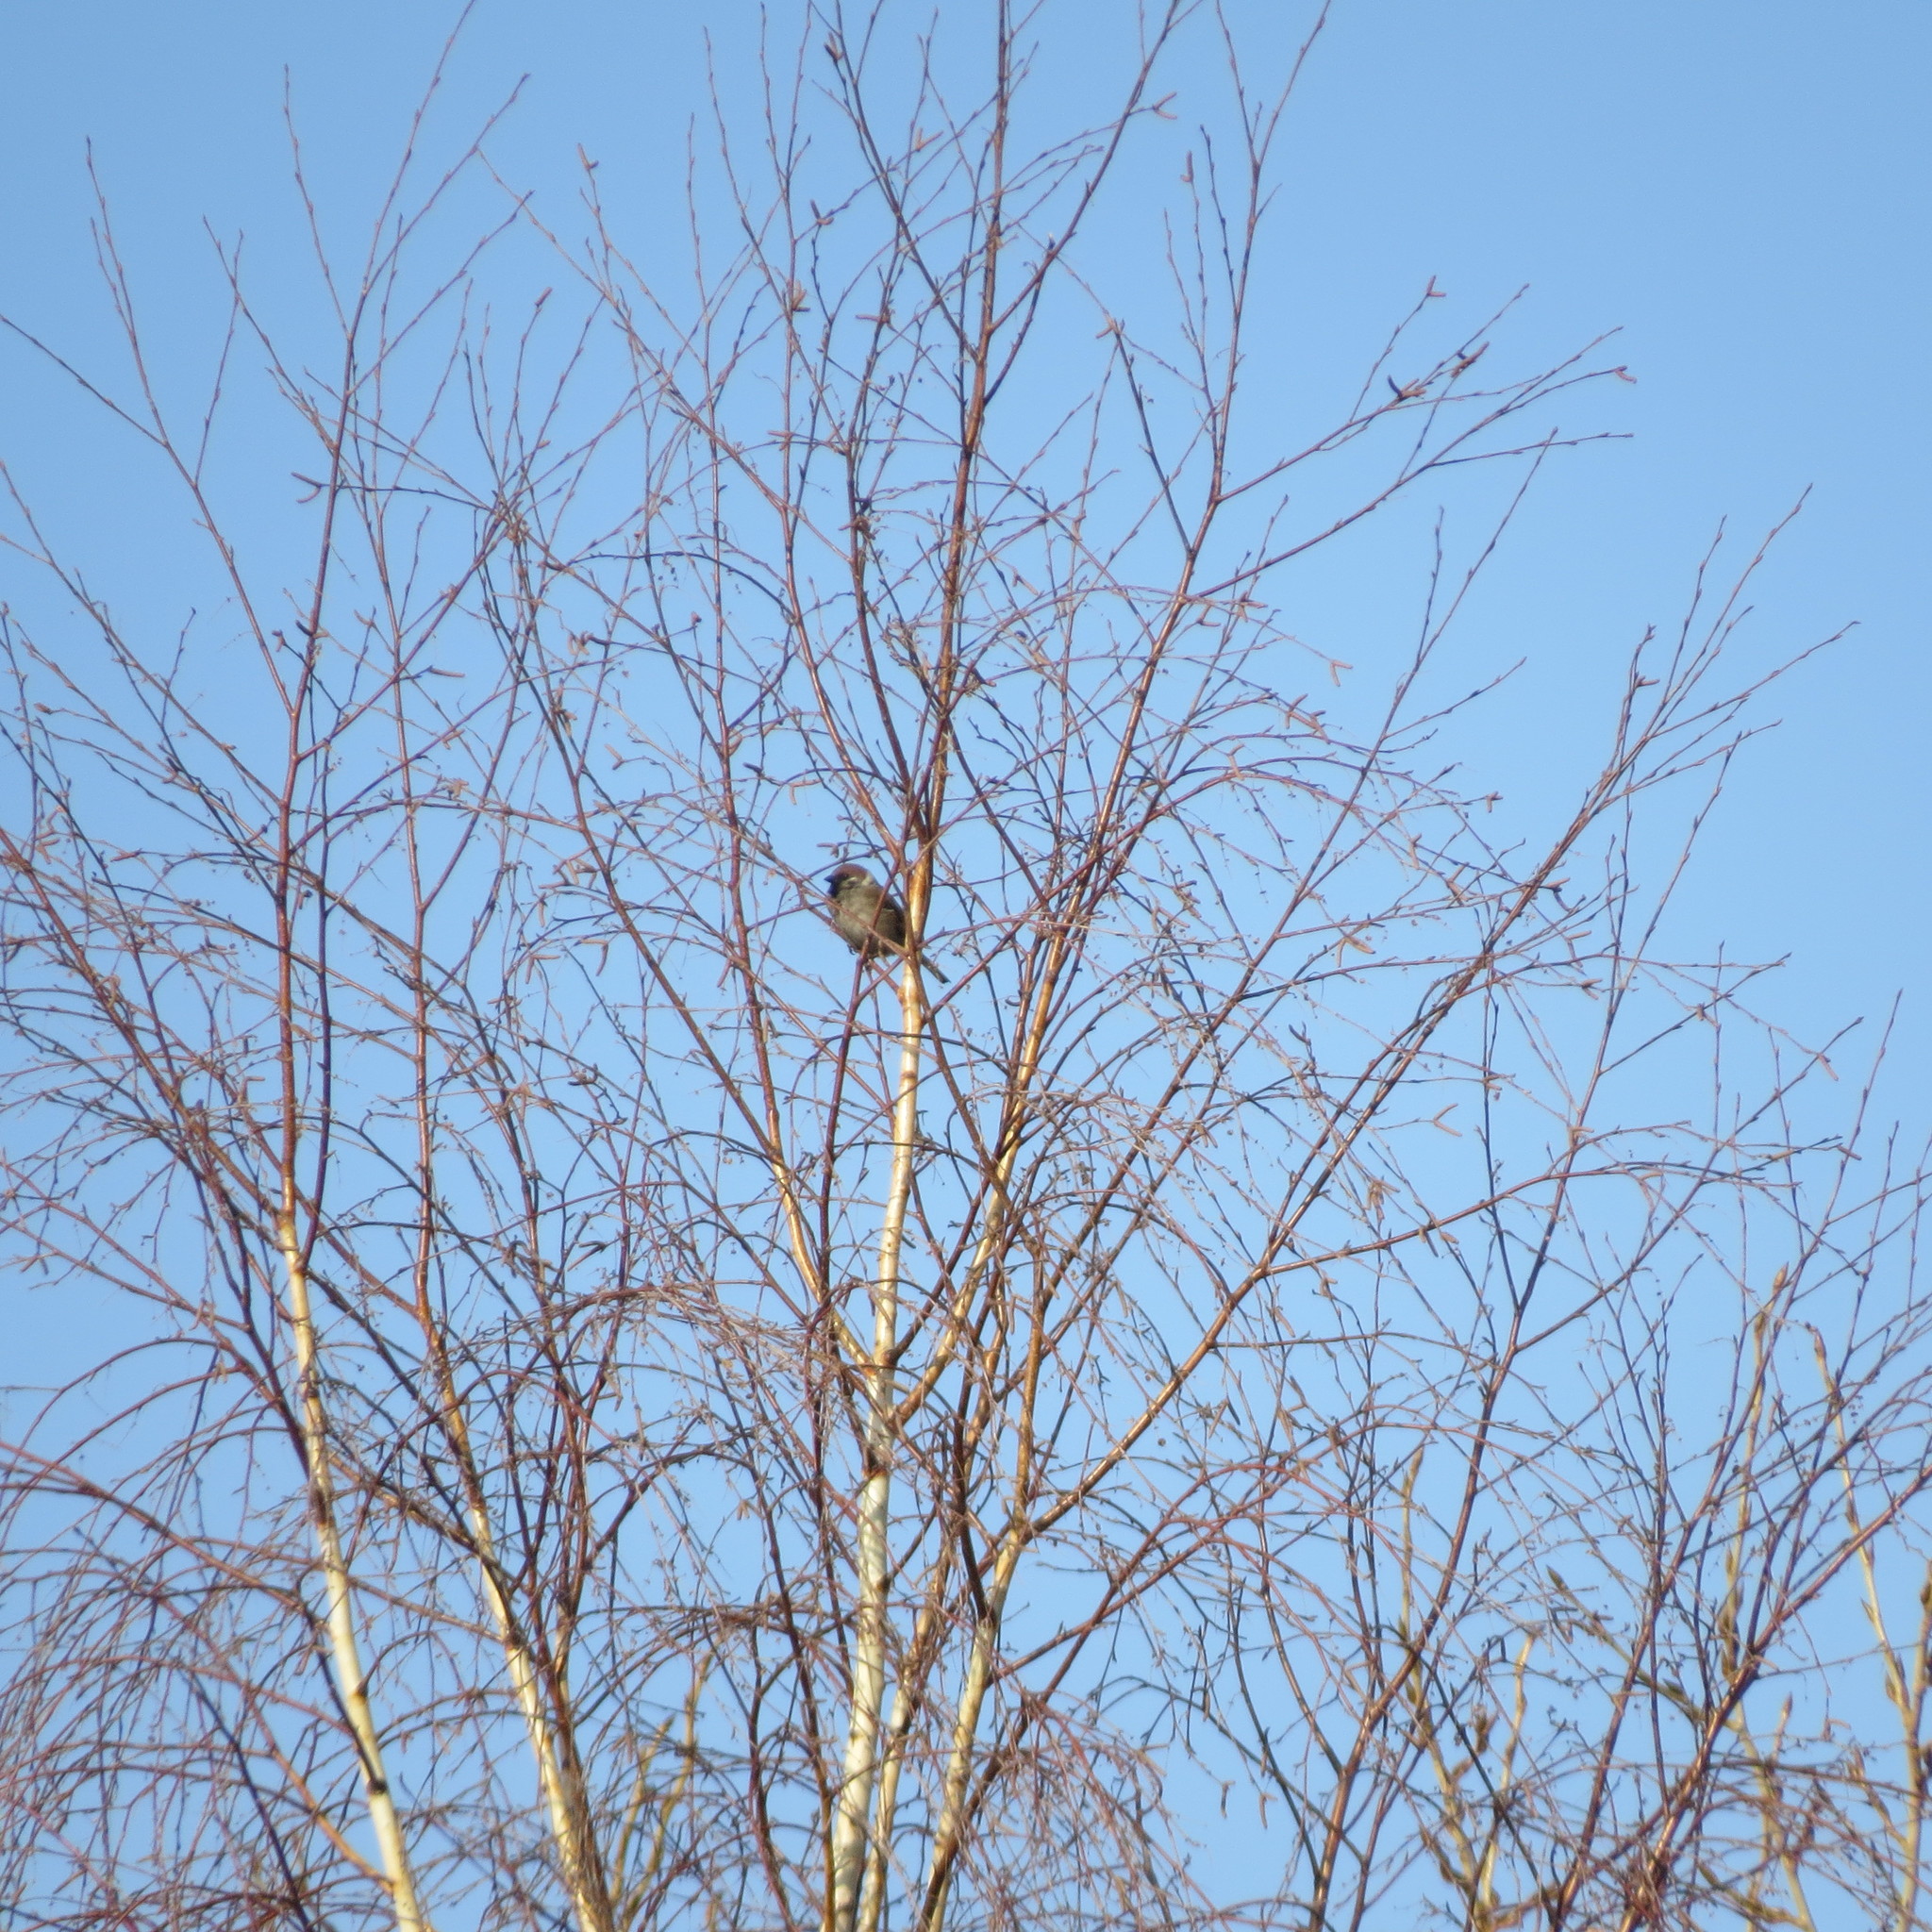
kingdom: Animalia
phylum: Chordata
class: Aves
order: Passeriformes
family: Passeridae
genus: Passer
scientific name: Passer montanus
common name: Eurasian tree sparrow
